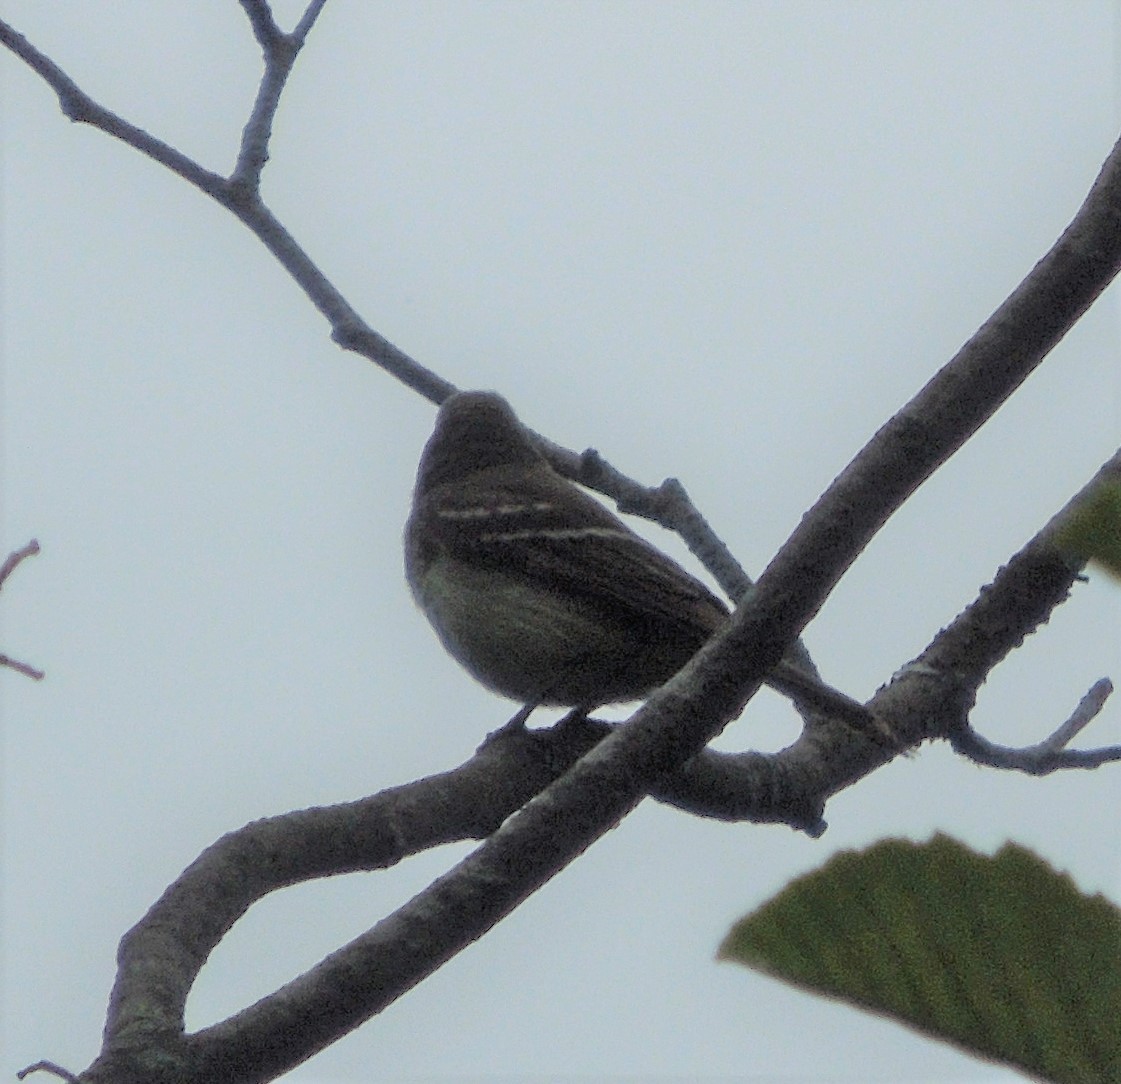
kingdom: Animalia
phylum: Chordata
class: Aves
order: Passeriformes
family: Tyrannidae
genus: Empidonax
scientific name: Empidonax
